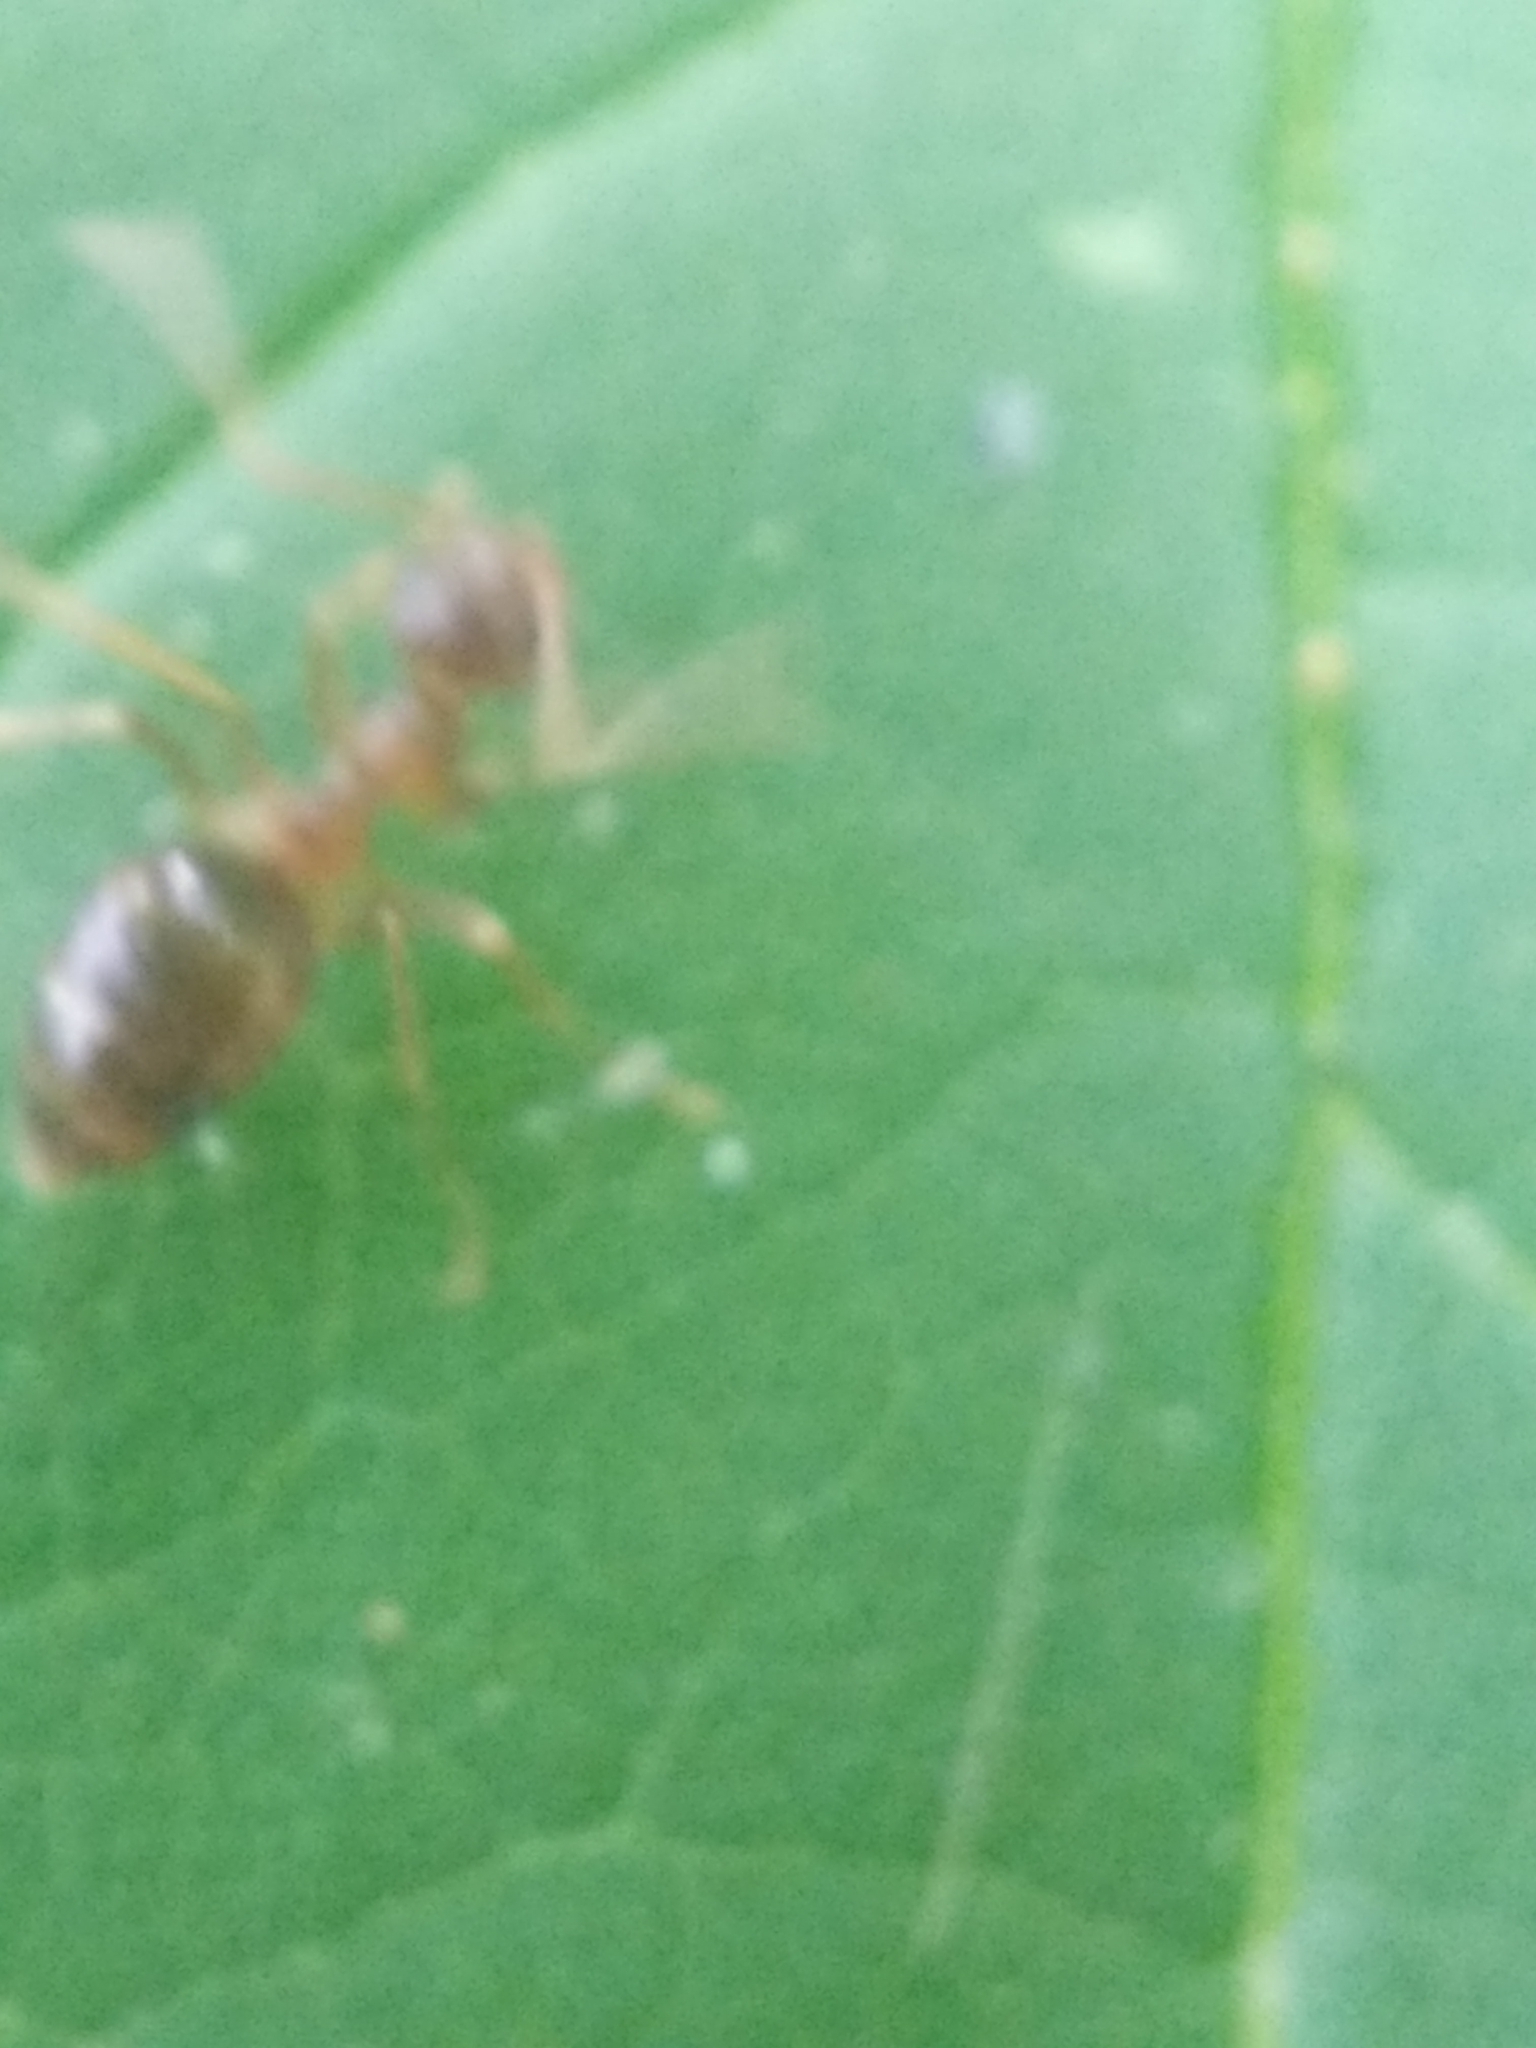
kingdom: Animalia
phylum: Arthropoda
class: Insecta
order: Hymenoptera
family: Formicidae
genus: Prenolepis
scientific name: Prenolepis imparis
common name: Small honey ant
